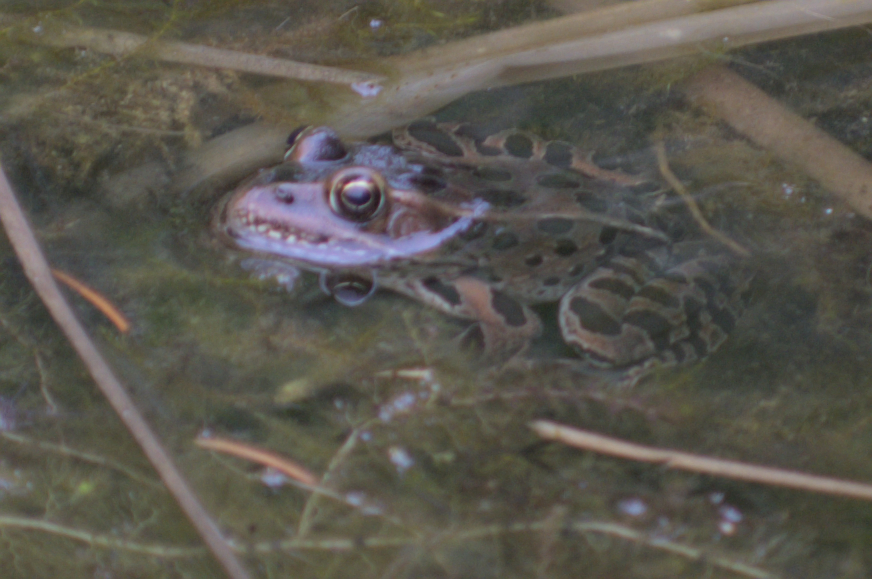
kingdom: Animalia
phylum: Chordata
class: Amphibia
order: Anura
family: Ranidae
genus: Lithobates
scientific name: Lithobates pipiens
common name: Northern leopard frog
